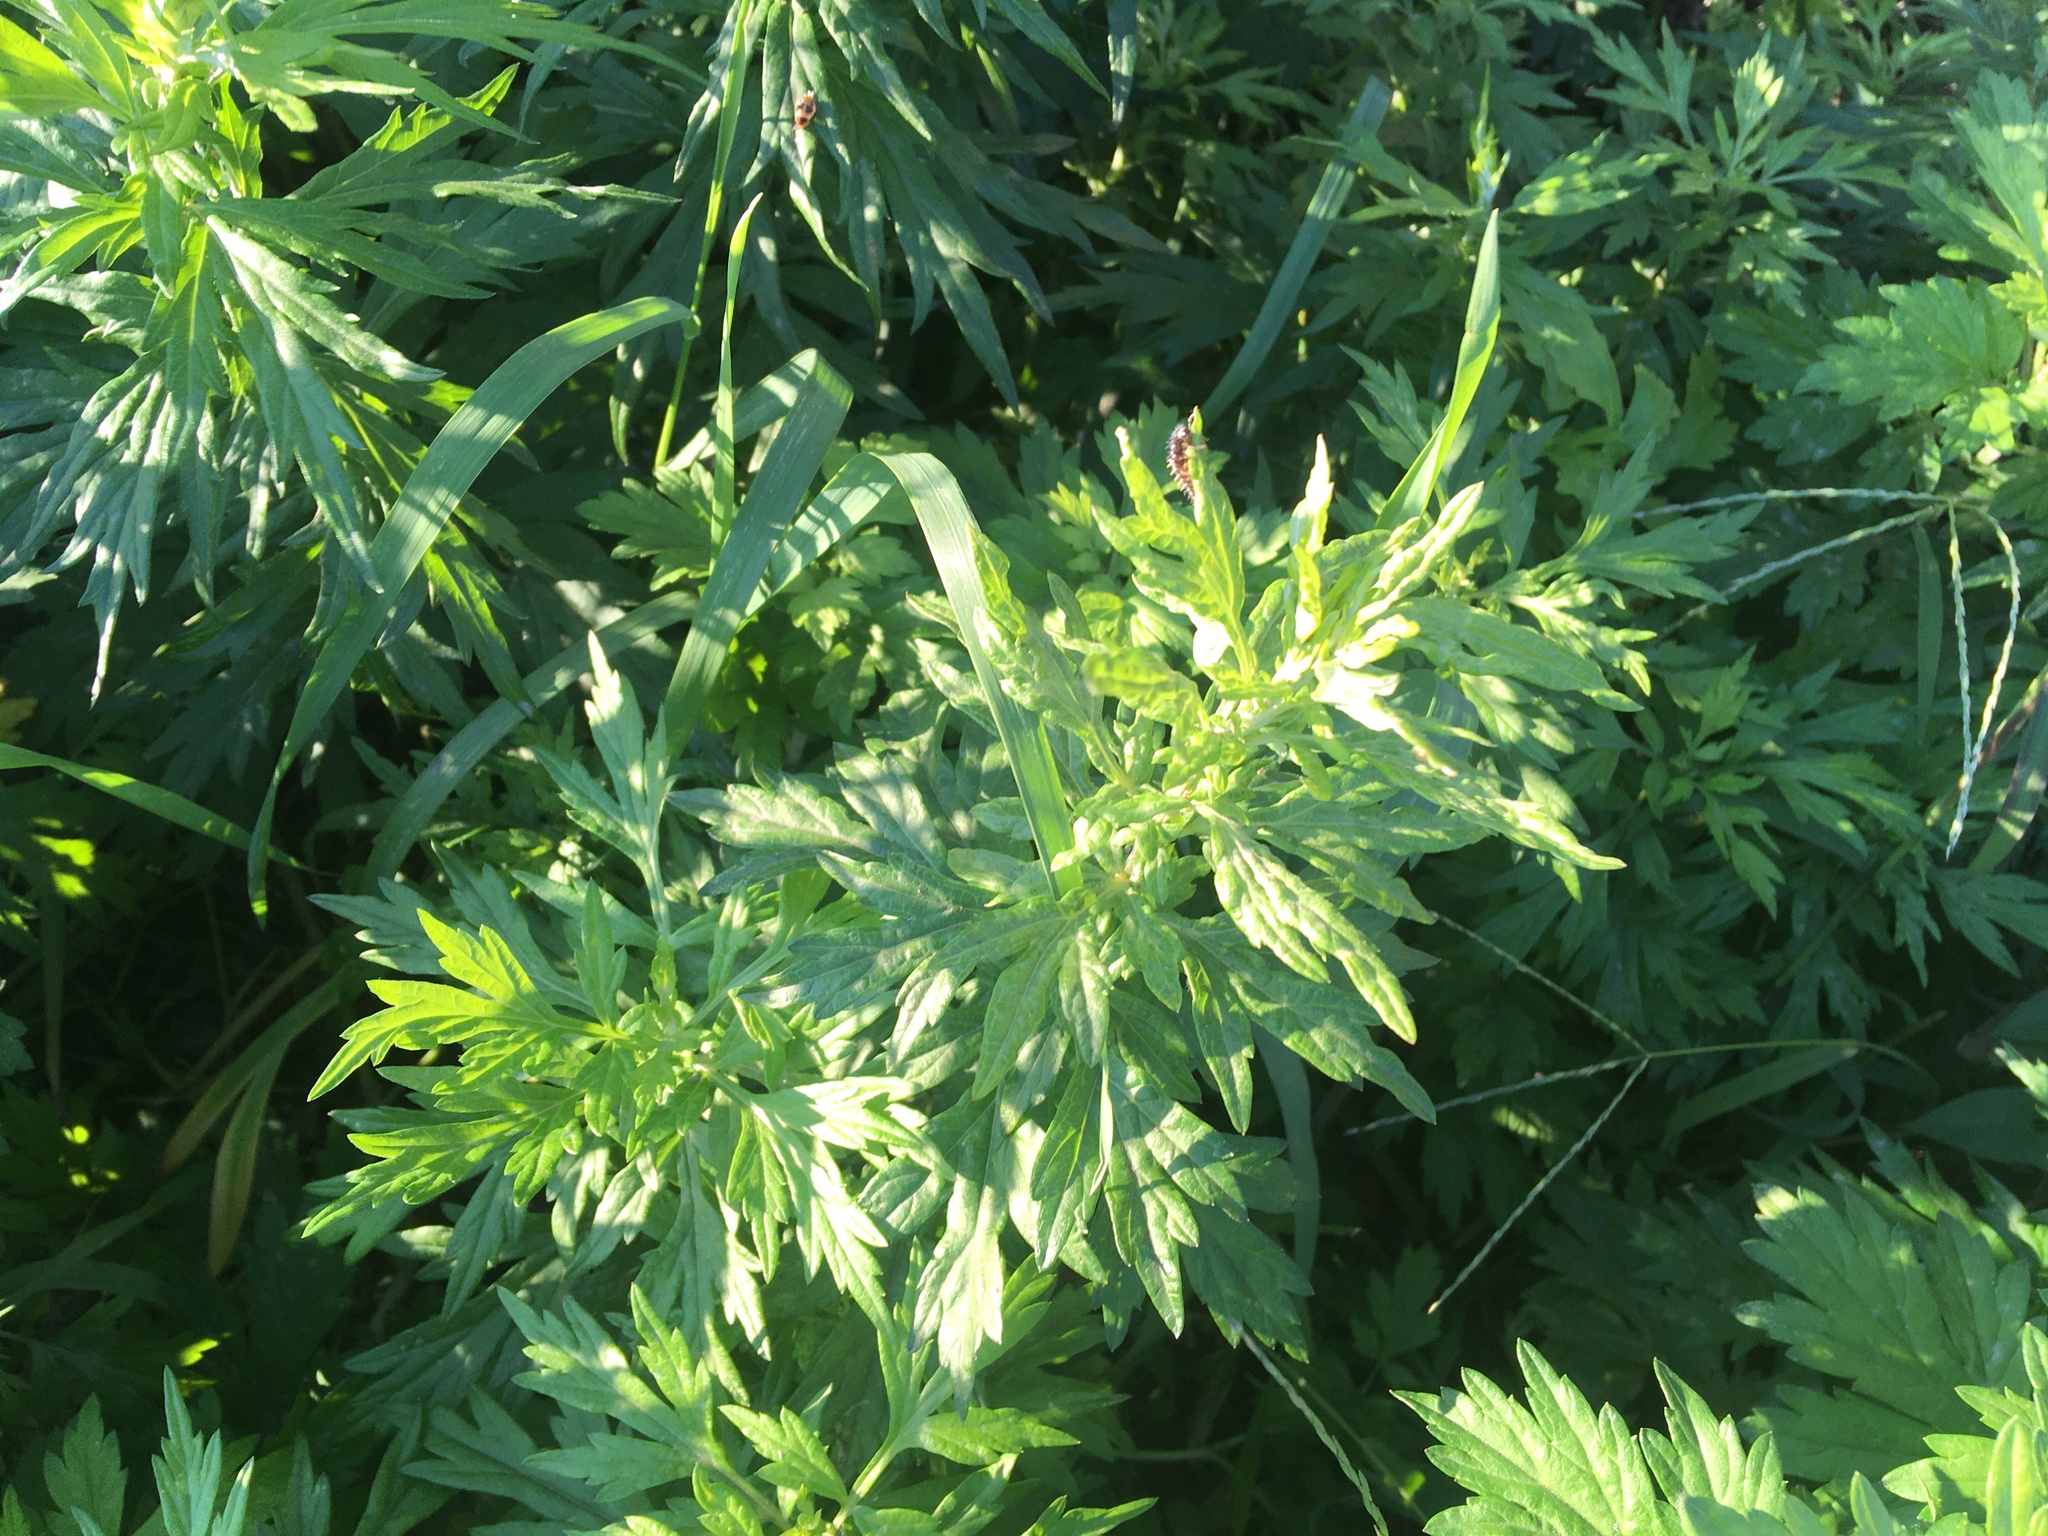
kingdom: Plantae
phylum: Tracheophyta
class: Magnoliopsida
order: Asterales
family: Asteraceae
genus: Artemisia
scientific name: Artemisia vulgaris
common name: Mugwort
